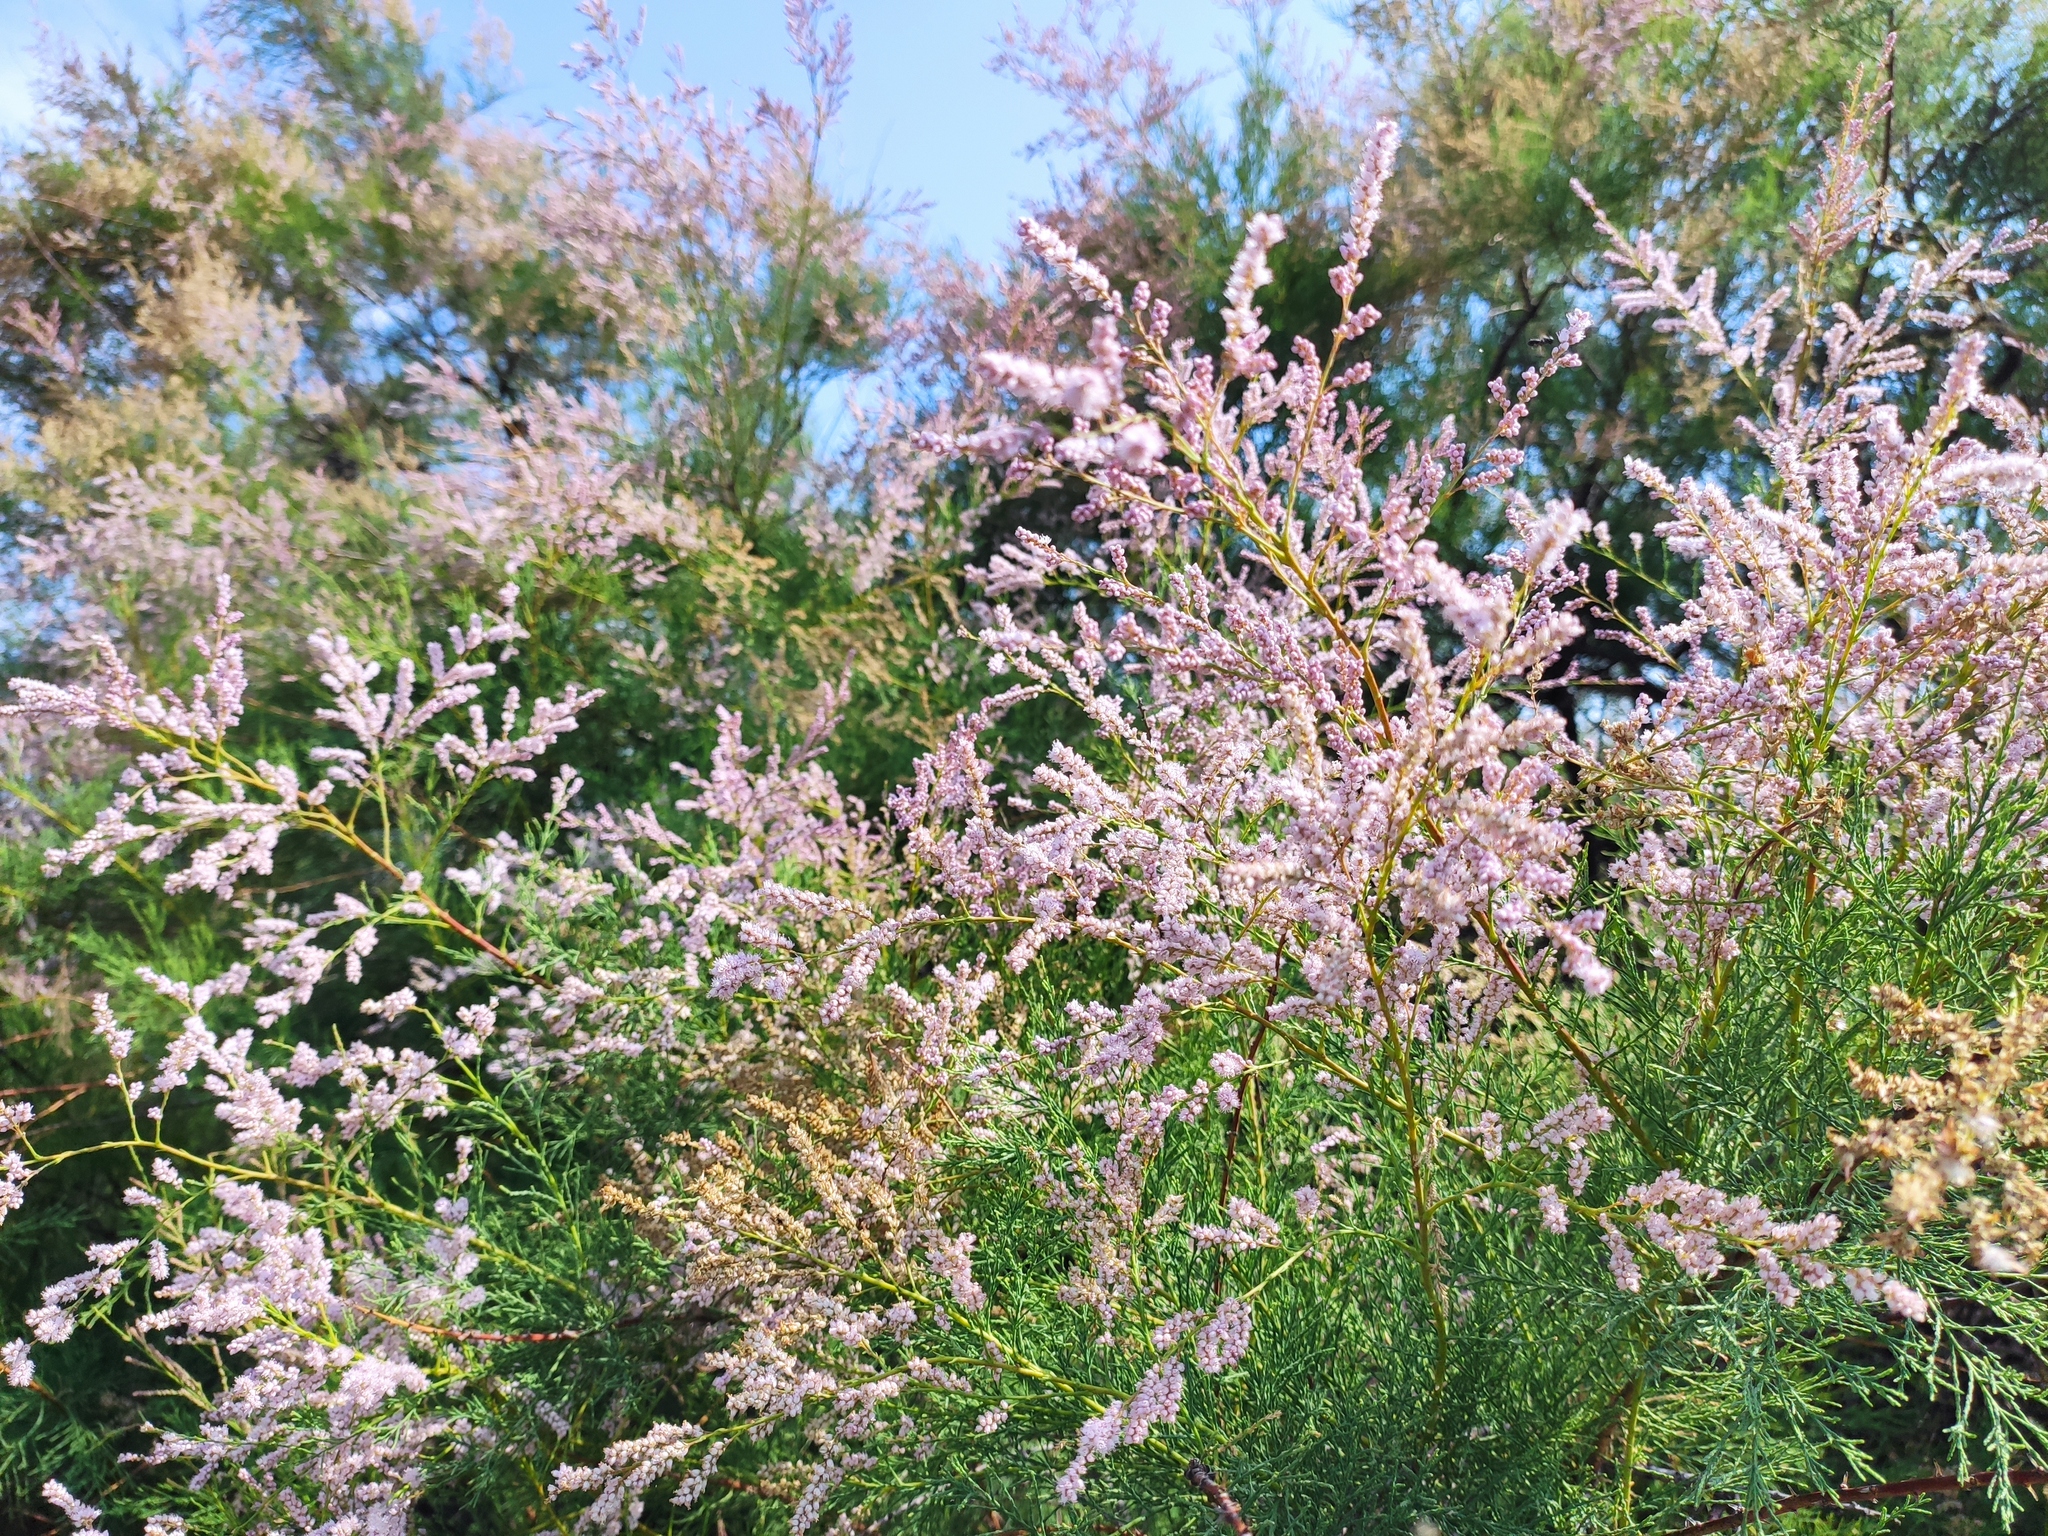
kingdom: Plantae
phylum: Tracheophyta
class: Magnoliopsida
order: Caryophyllales
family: Tamaricaceae
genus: Tamarix
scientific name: Tamarix ramosissima
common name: Pink tamarisk
